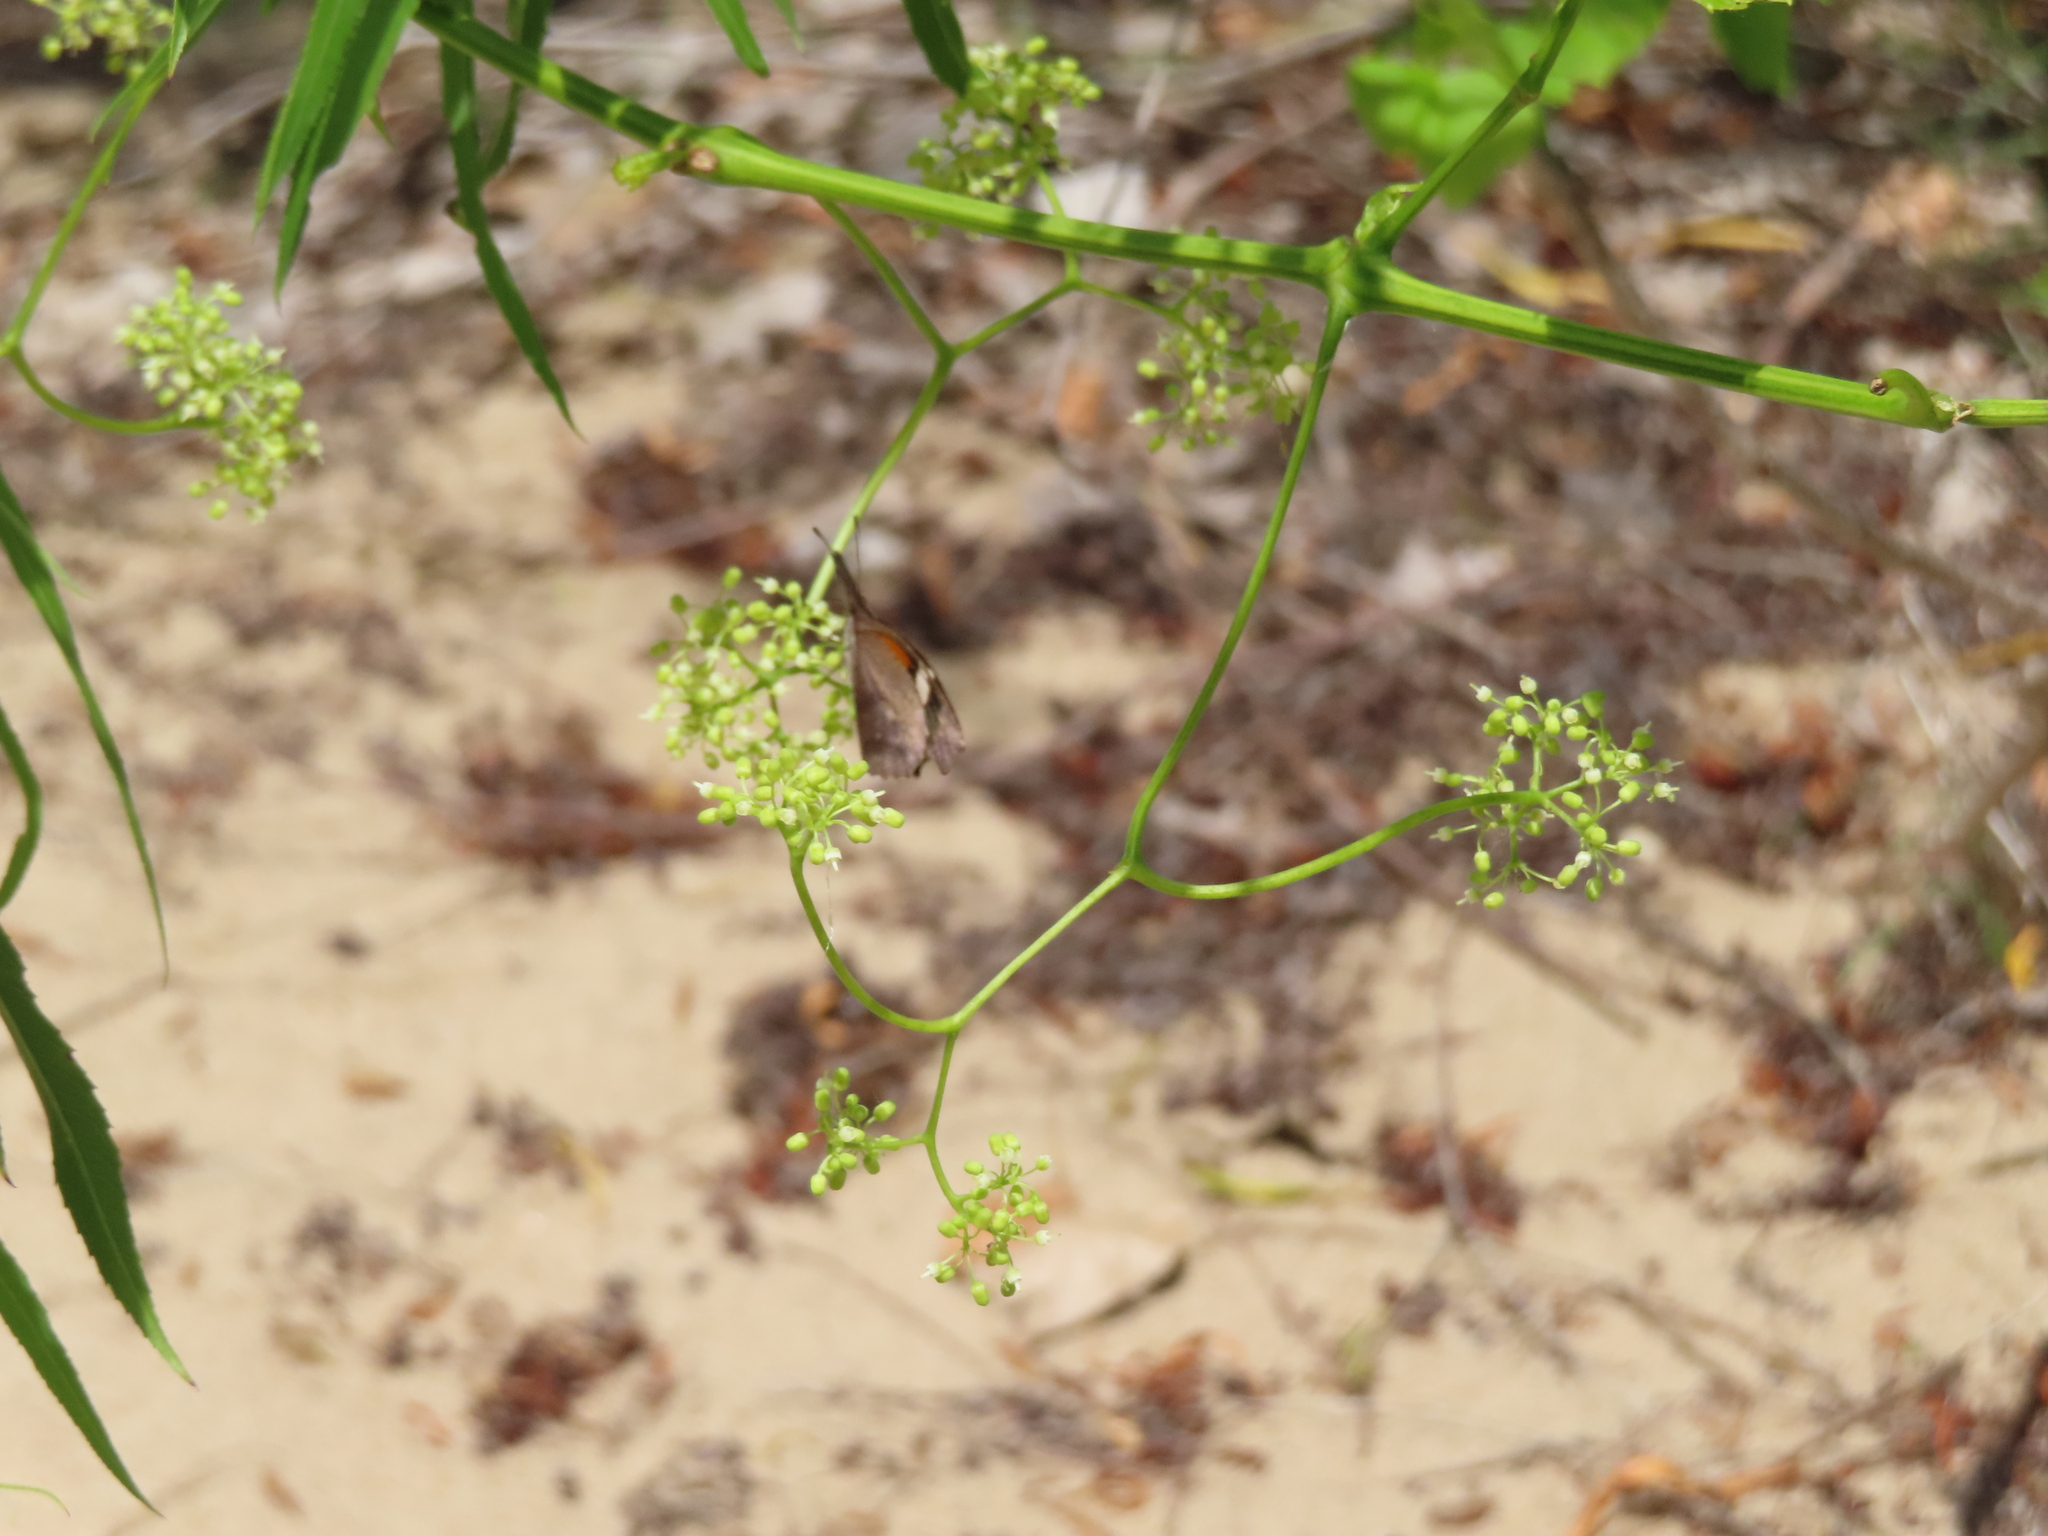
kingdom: Animalia
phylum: Arthropoda
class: Insecta
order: Lepidoptera
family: Nymphalidae
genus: Libytheana
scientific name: Libytheana carinenta
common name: American snout
